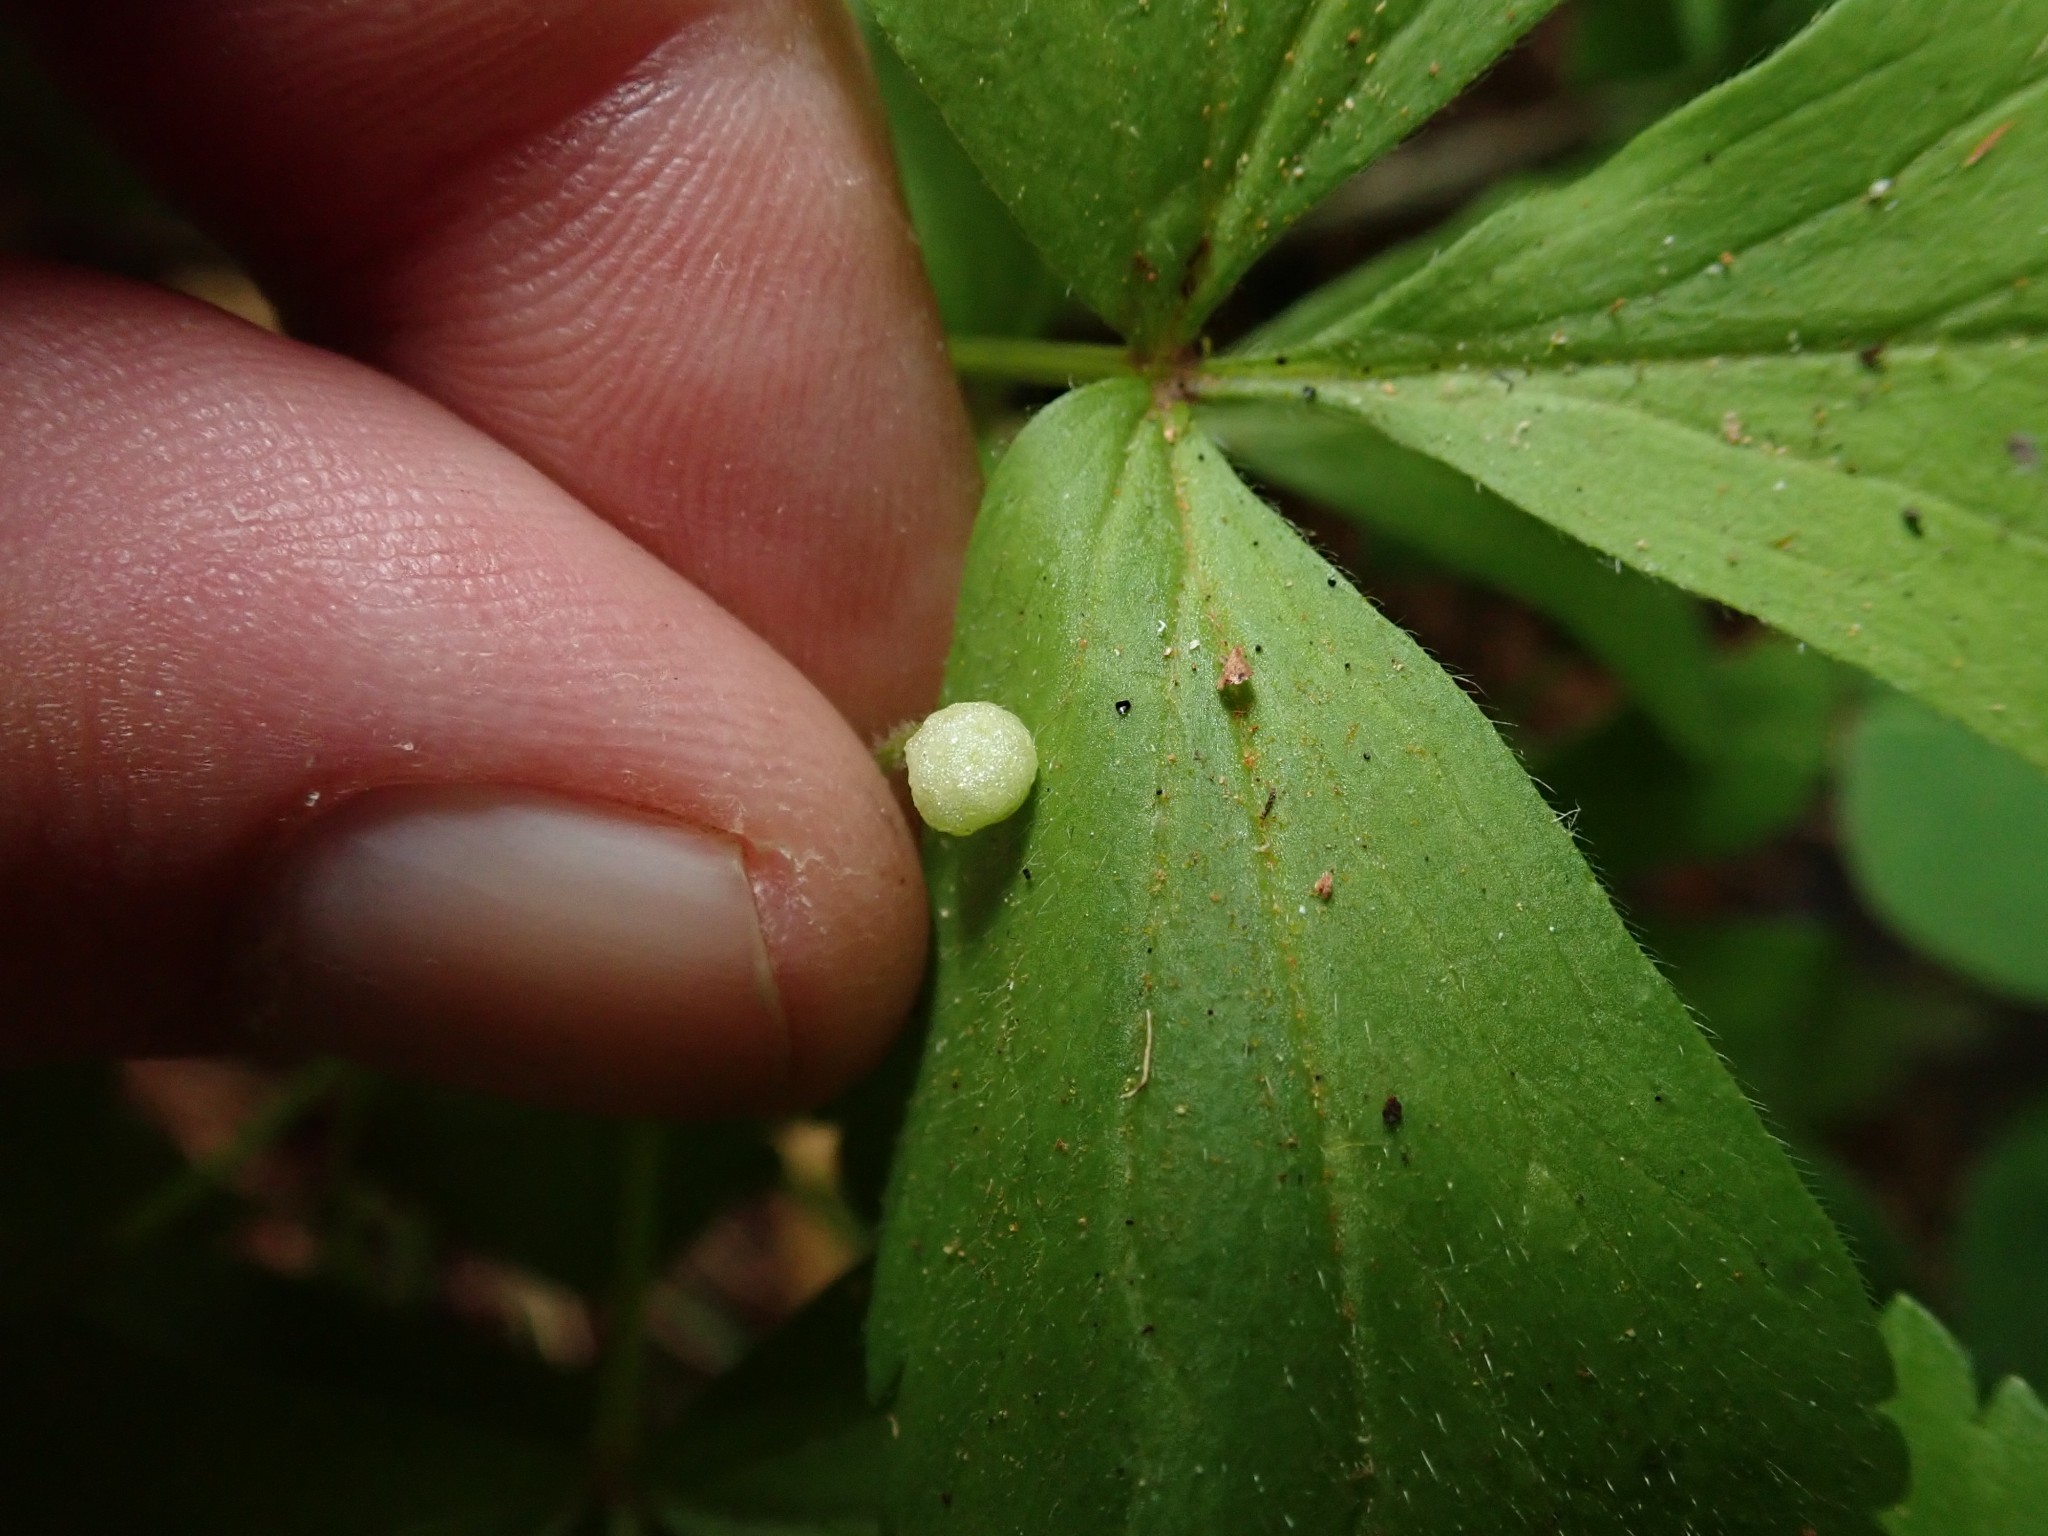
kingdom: Plantae
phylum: Tracheophyta
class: Magnoliopsida
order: Ranunculales
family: Ranunculaceae
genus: Anemone
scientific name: Anemone
